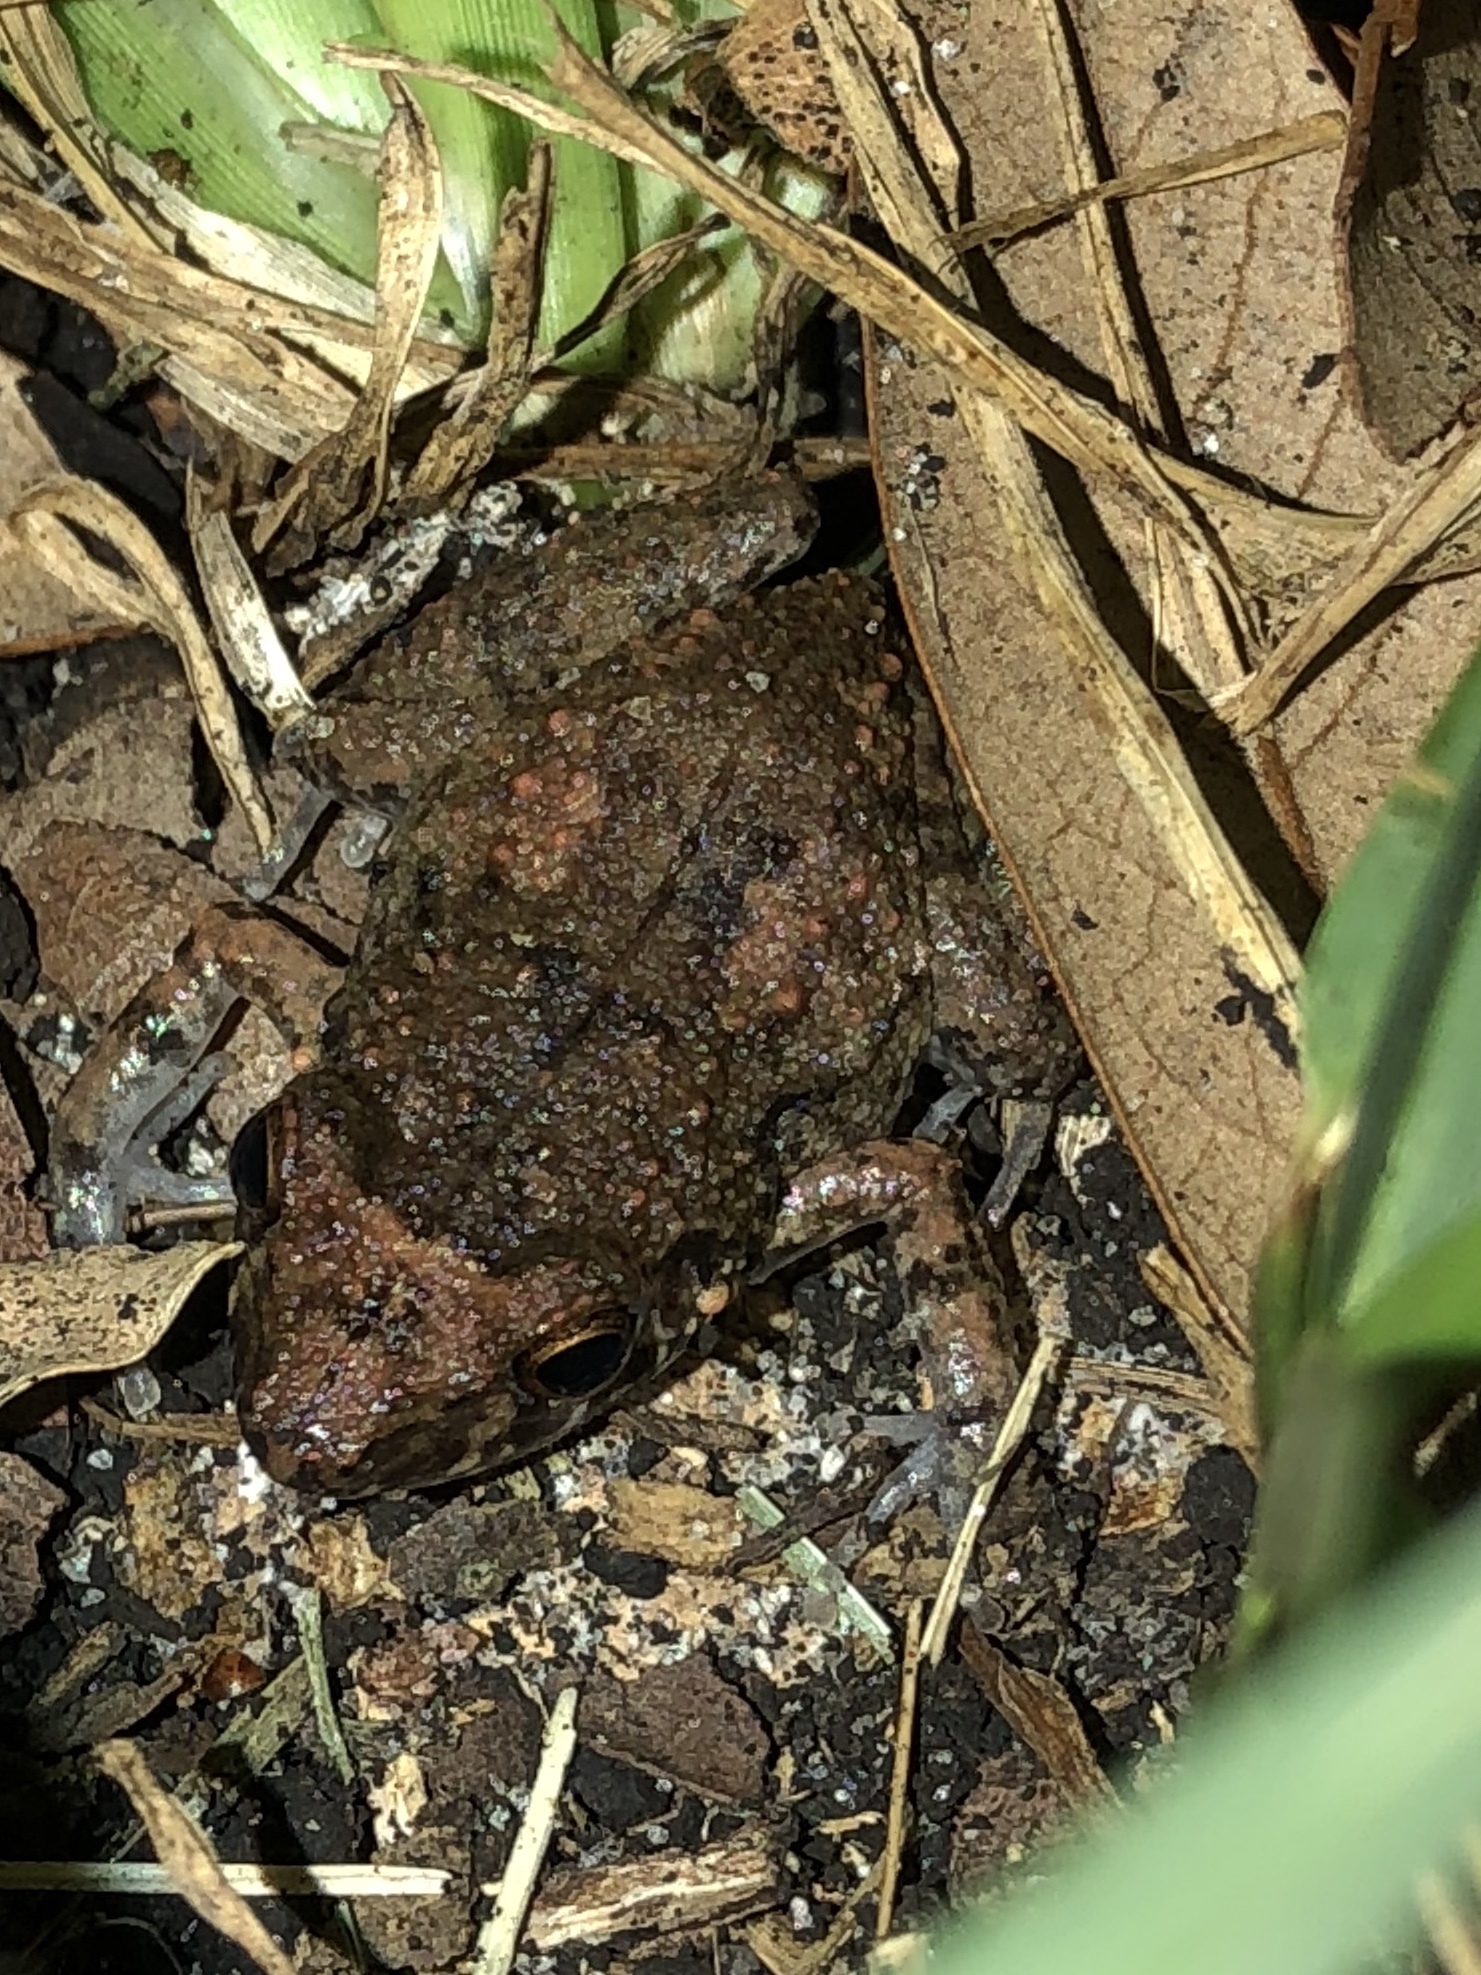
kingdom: Animalia
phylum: Chordata
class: Amphibia
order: Anura
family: Eleutherodactylidae
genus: Eleutherodactylus
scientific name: Eleutherodactylus planirostris
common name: Greenhouse frog
